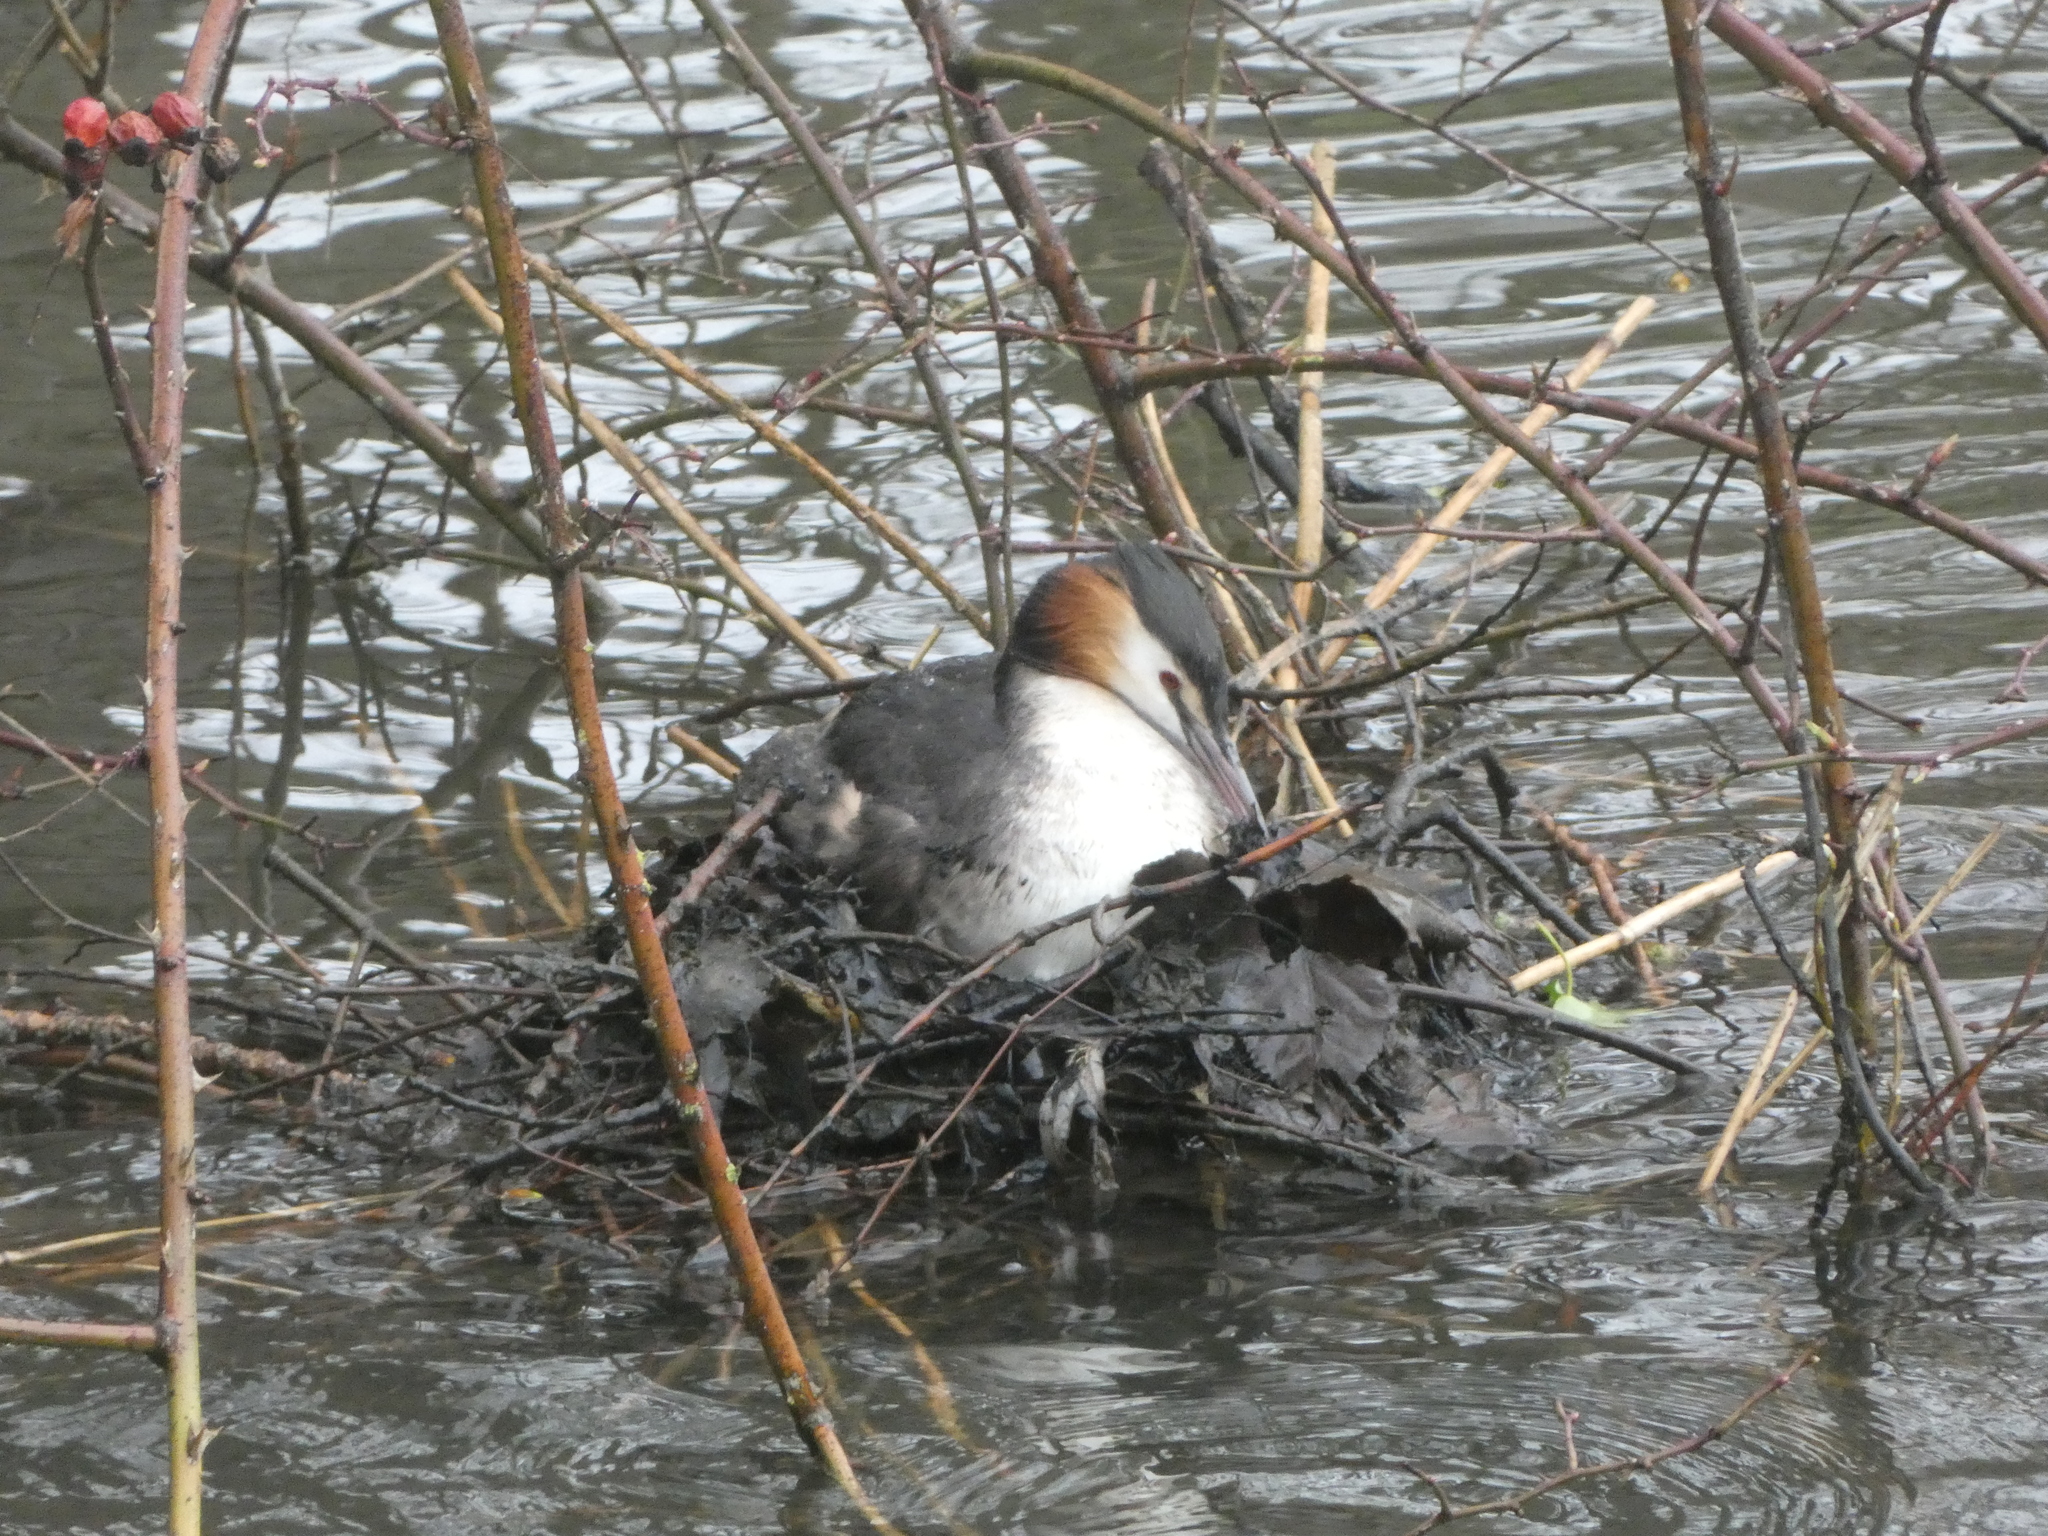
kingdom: Animalia
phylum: Chordata
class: Aves
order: Podicipediformes
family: Podicipedidae
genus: Podiceps
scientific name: Podiceps cristatus
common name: Great crested grebe
